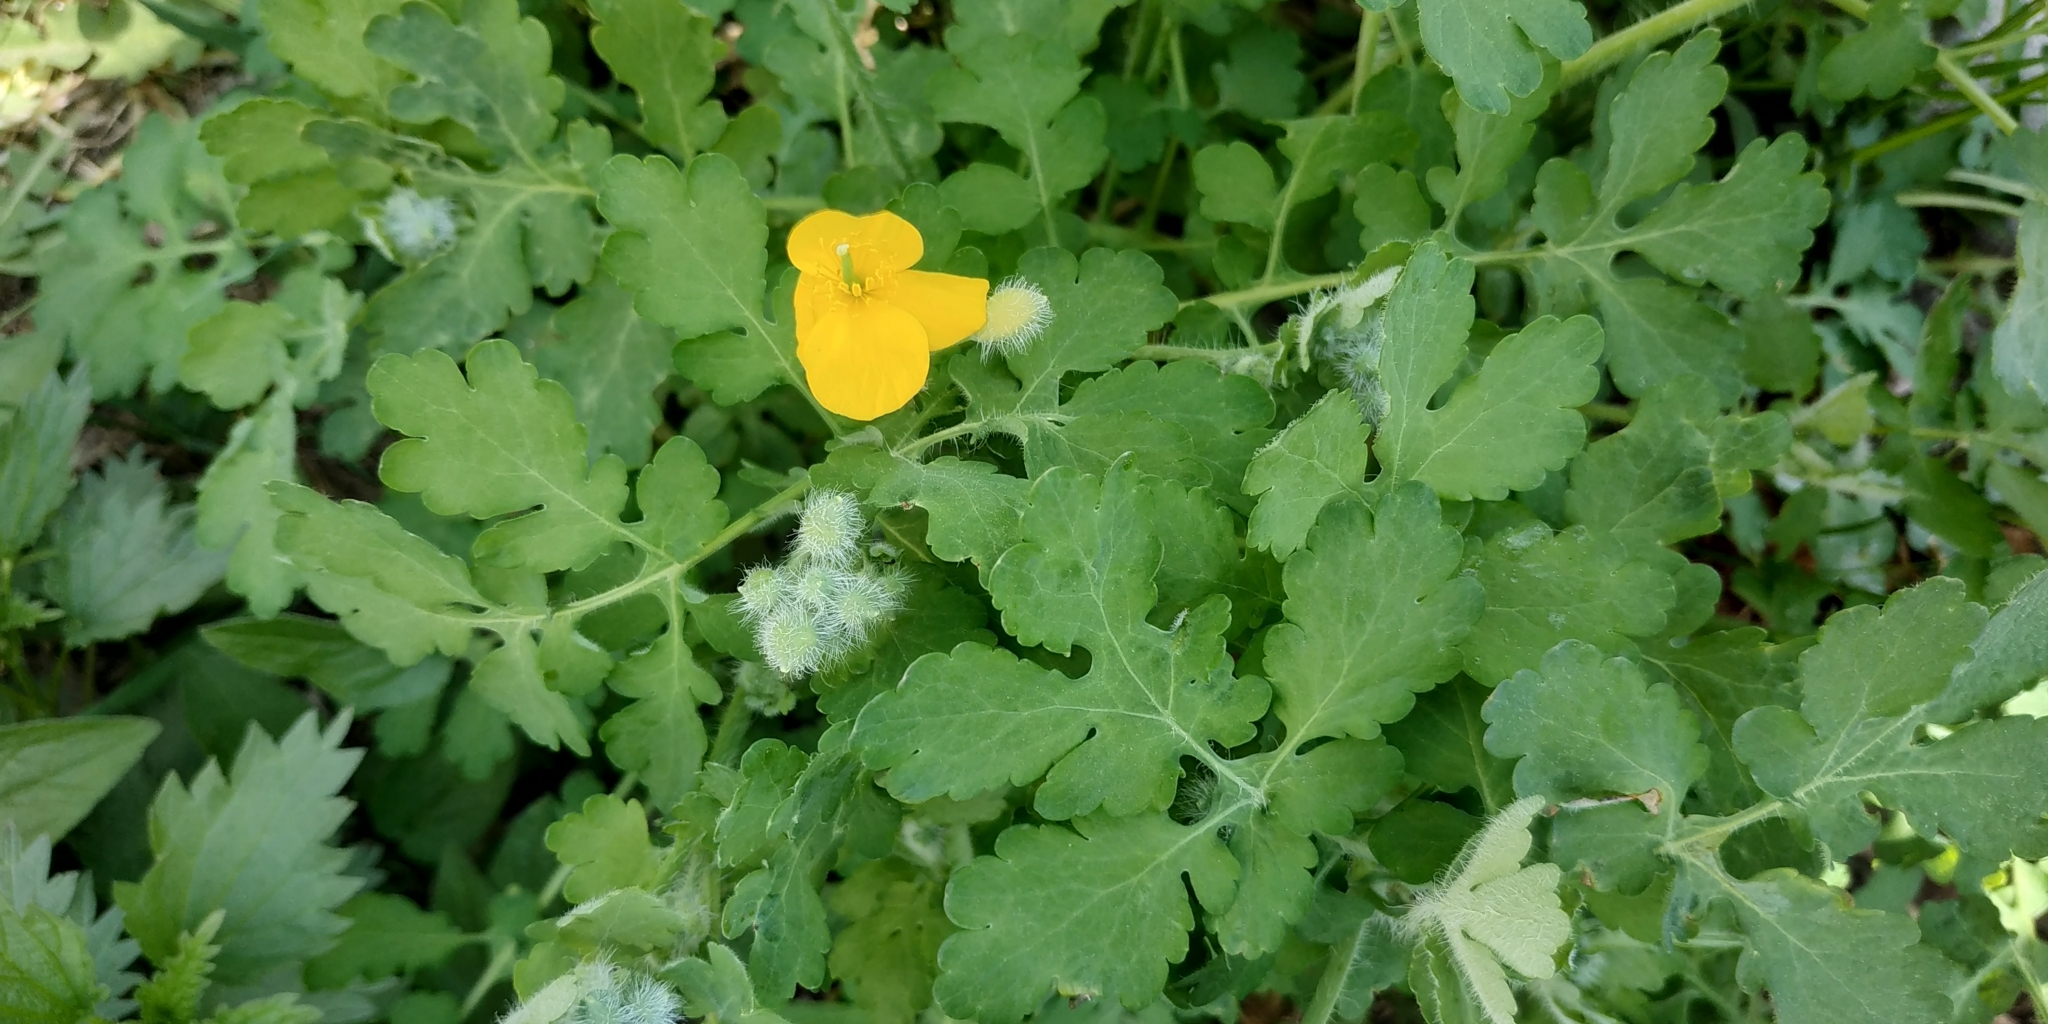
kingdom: Plantae
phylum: Tracheophyta
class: Magnoliopsida
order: Ranunculales
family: Papaveraceae
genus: Chelidonium
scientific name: Chelidonium majus
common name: Greater celandine
